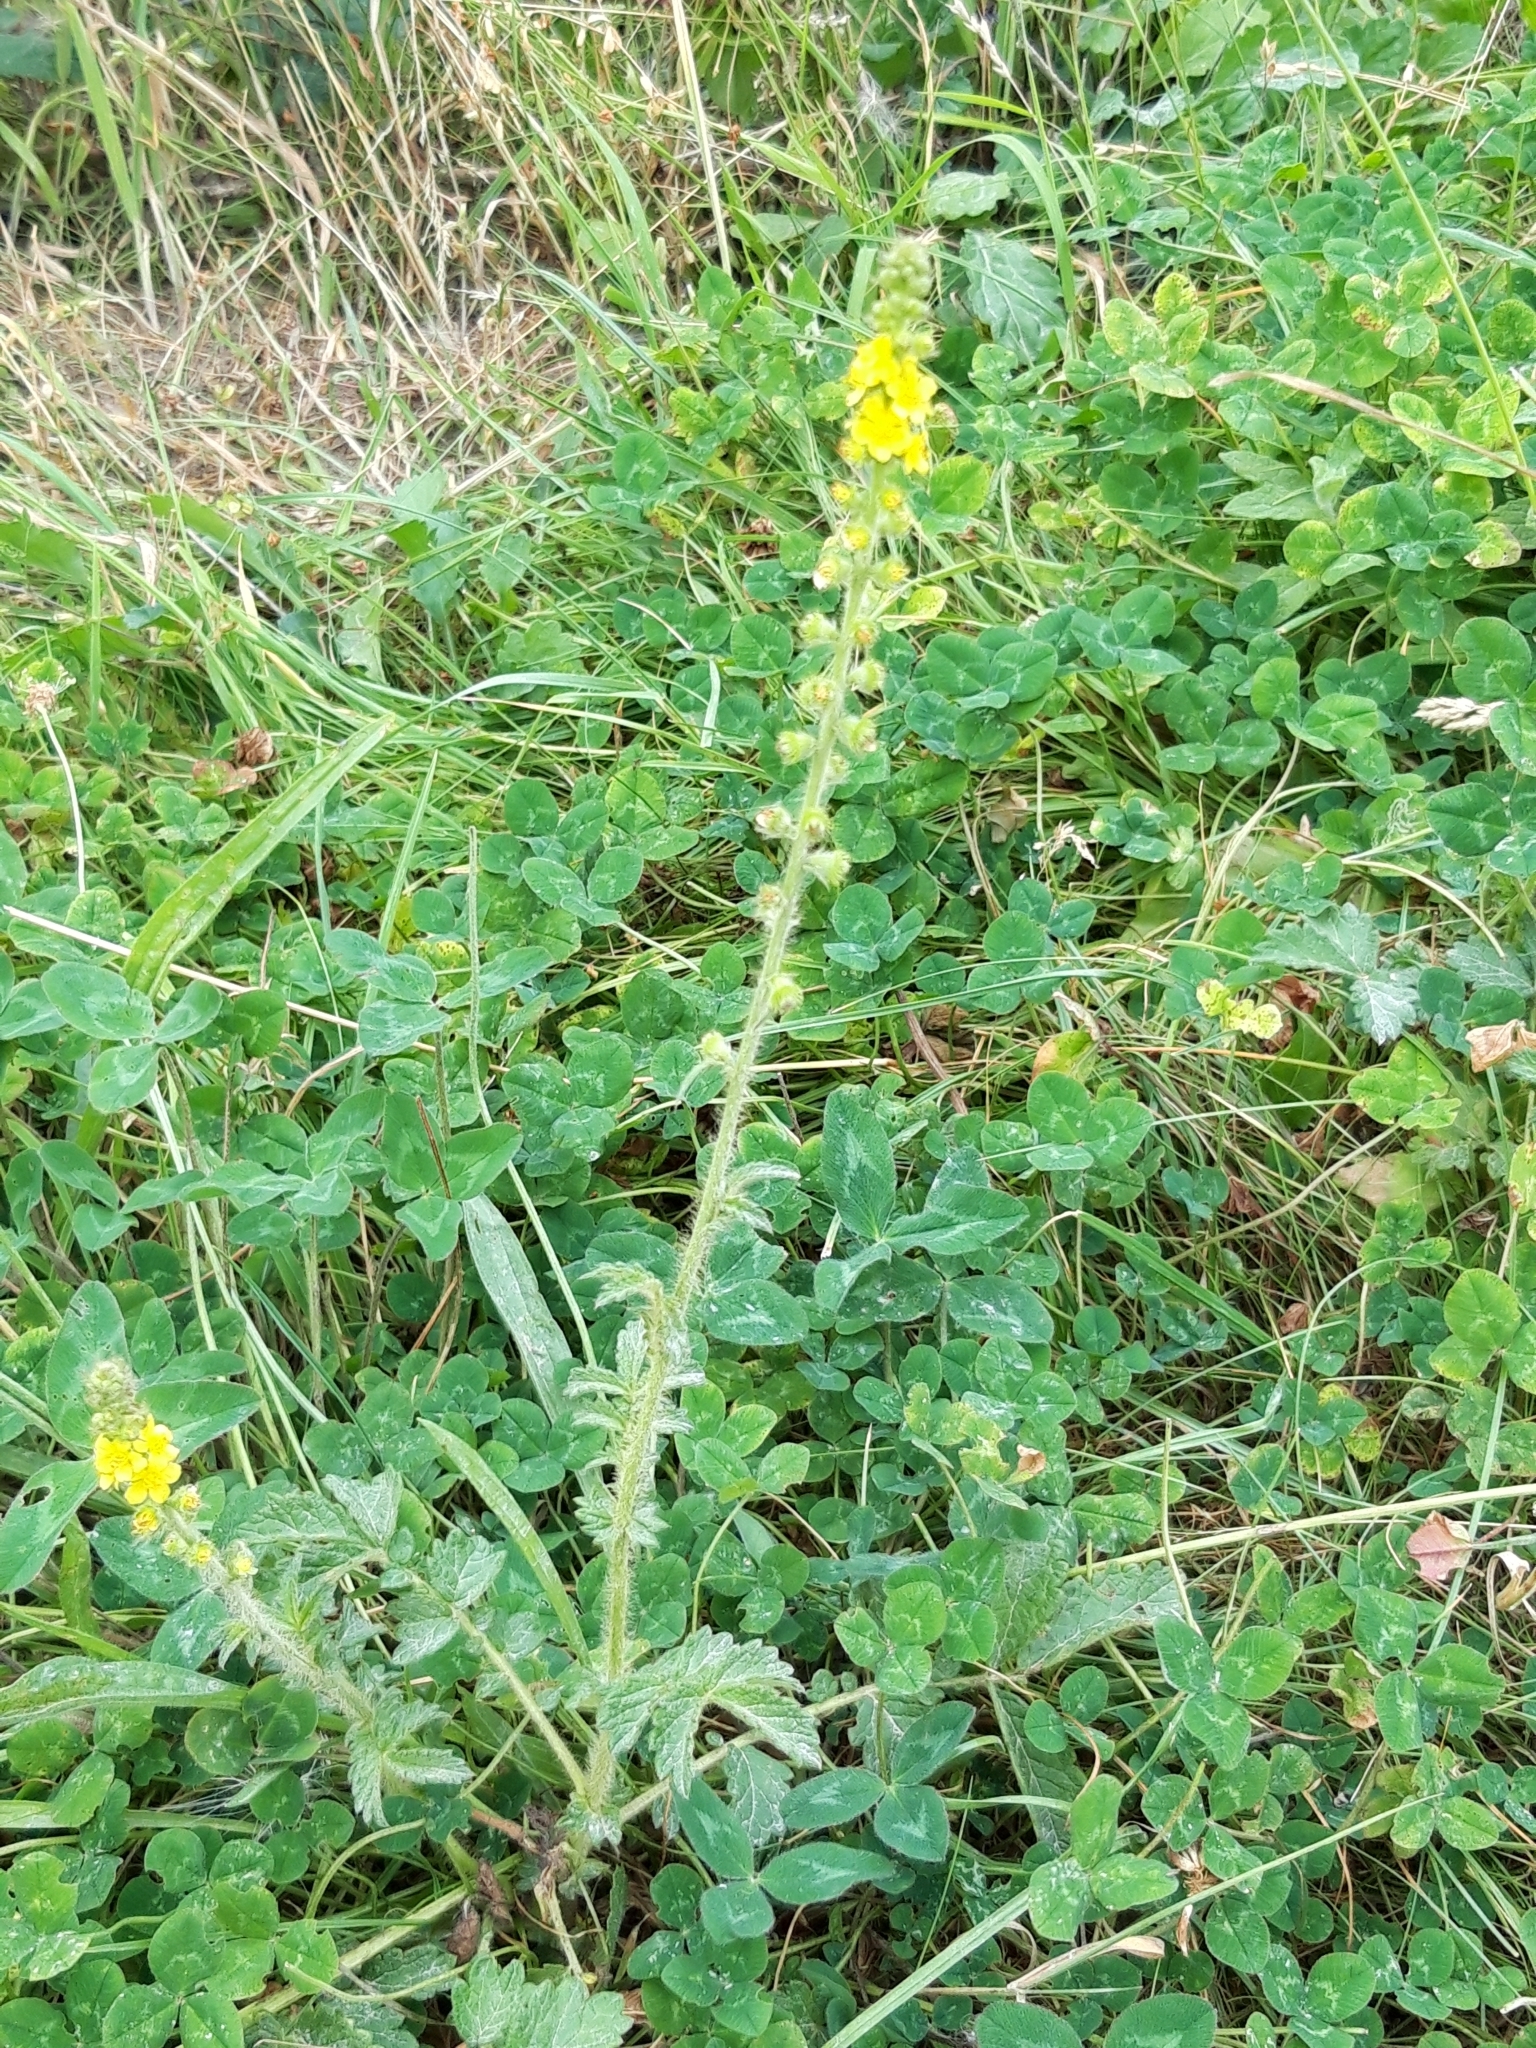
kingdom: Plantae
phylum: Tracheophyta
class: Magnoliopsida
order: Rosales
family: Rosaceae
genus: Agrimonia
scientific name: Agrimonia eupatoria
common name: Agrimony
